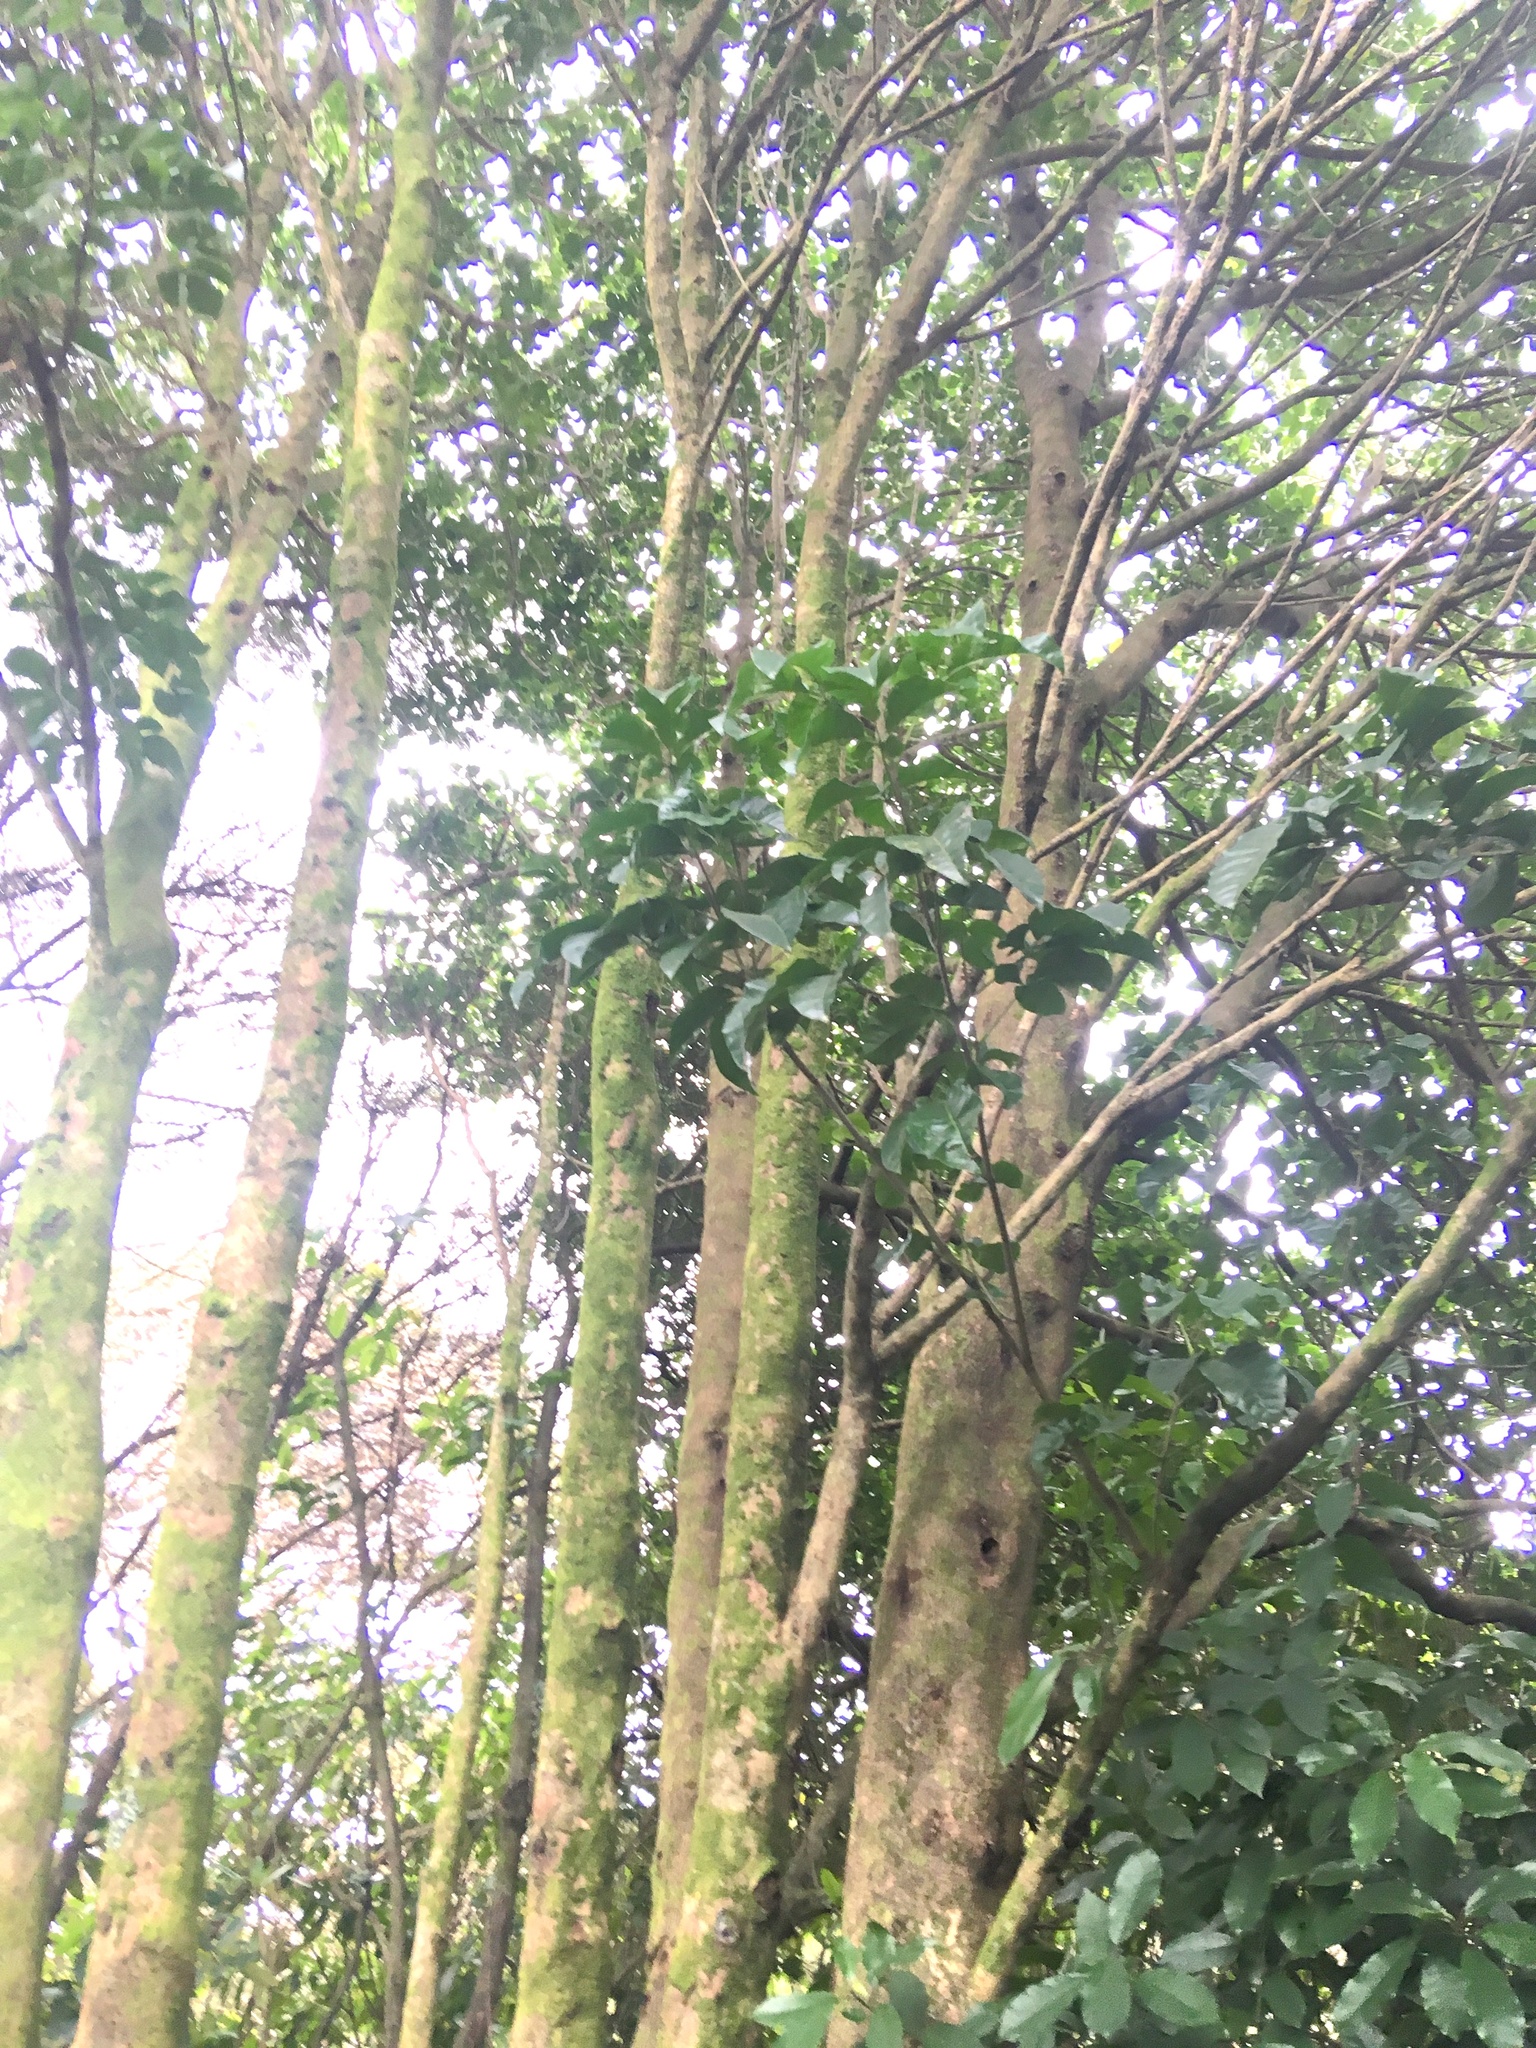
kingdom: Plantae
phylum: Tracheophyta
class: Magnoliopsida
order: Lamiales
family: Lamiaceae
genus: Vitex
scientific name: Vitex lucens
